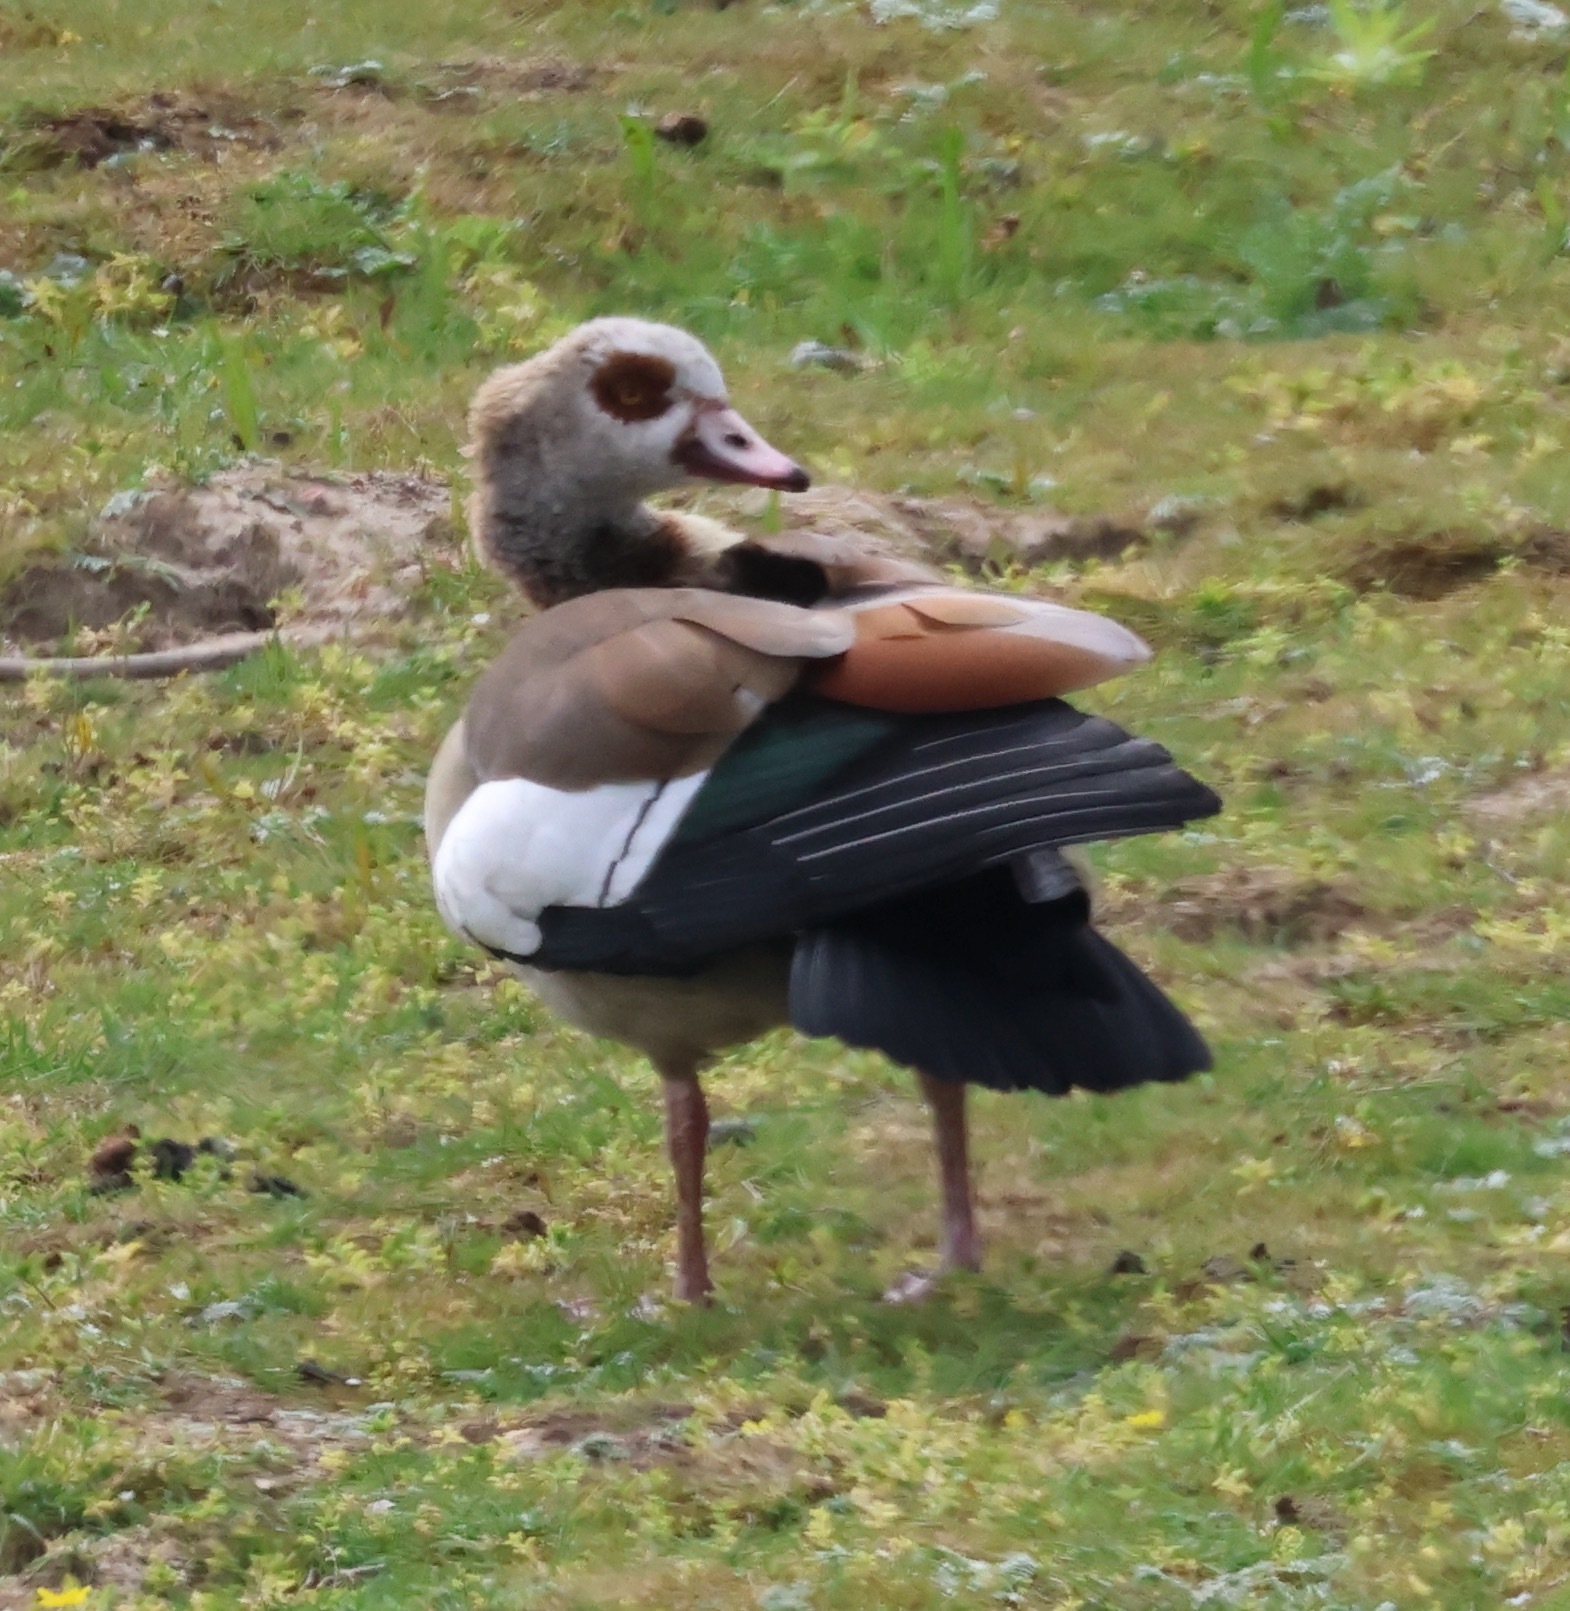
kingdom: Animalia
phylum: Chordata
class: Aves
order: Anseriformes
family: Anatidae
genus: Alopochen
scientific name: Alopochen aegyptiaca
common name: Egyptian goose
